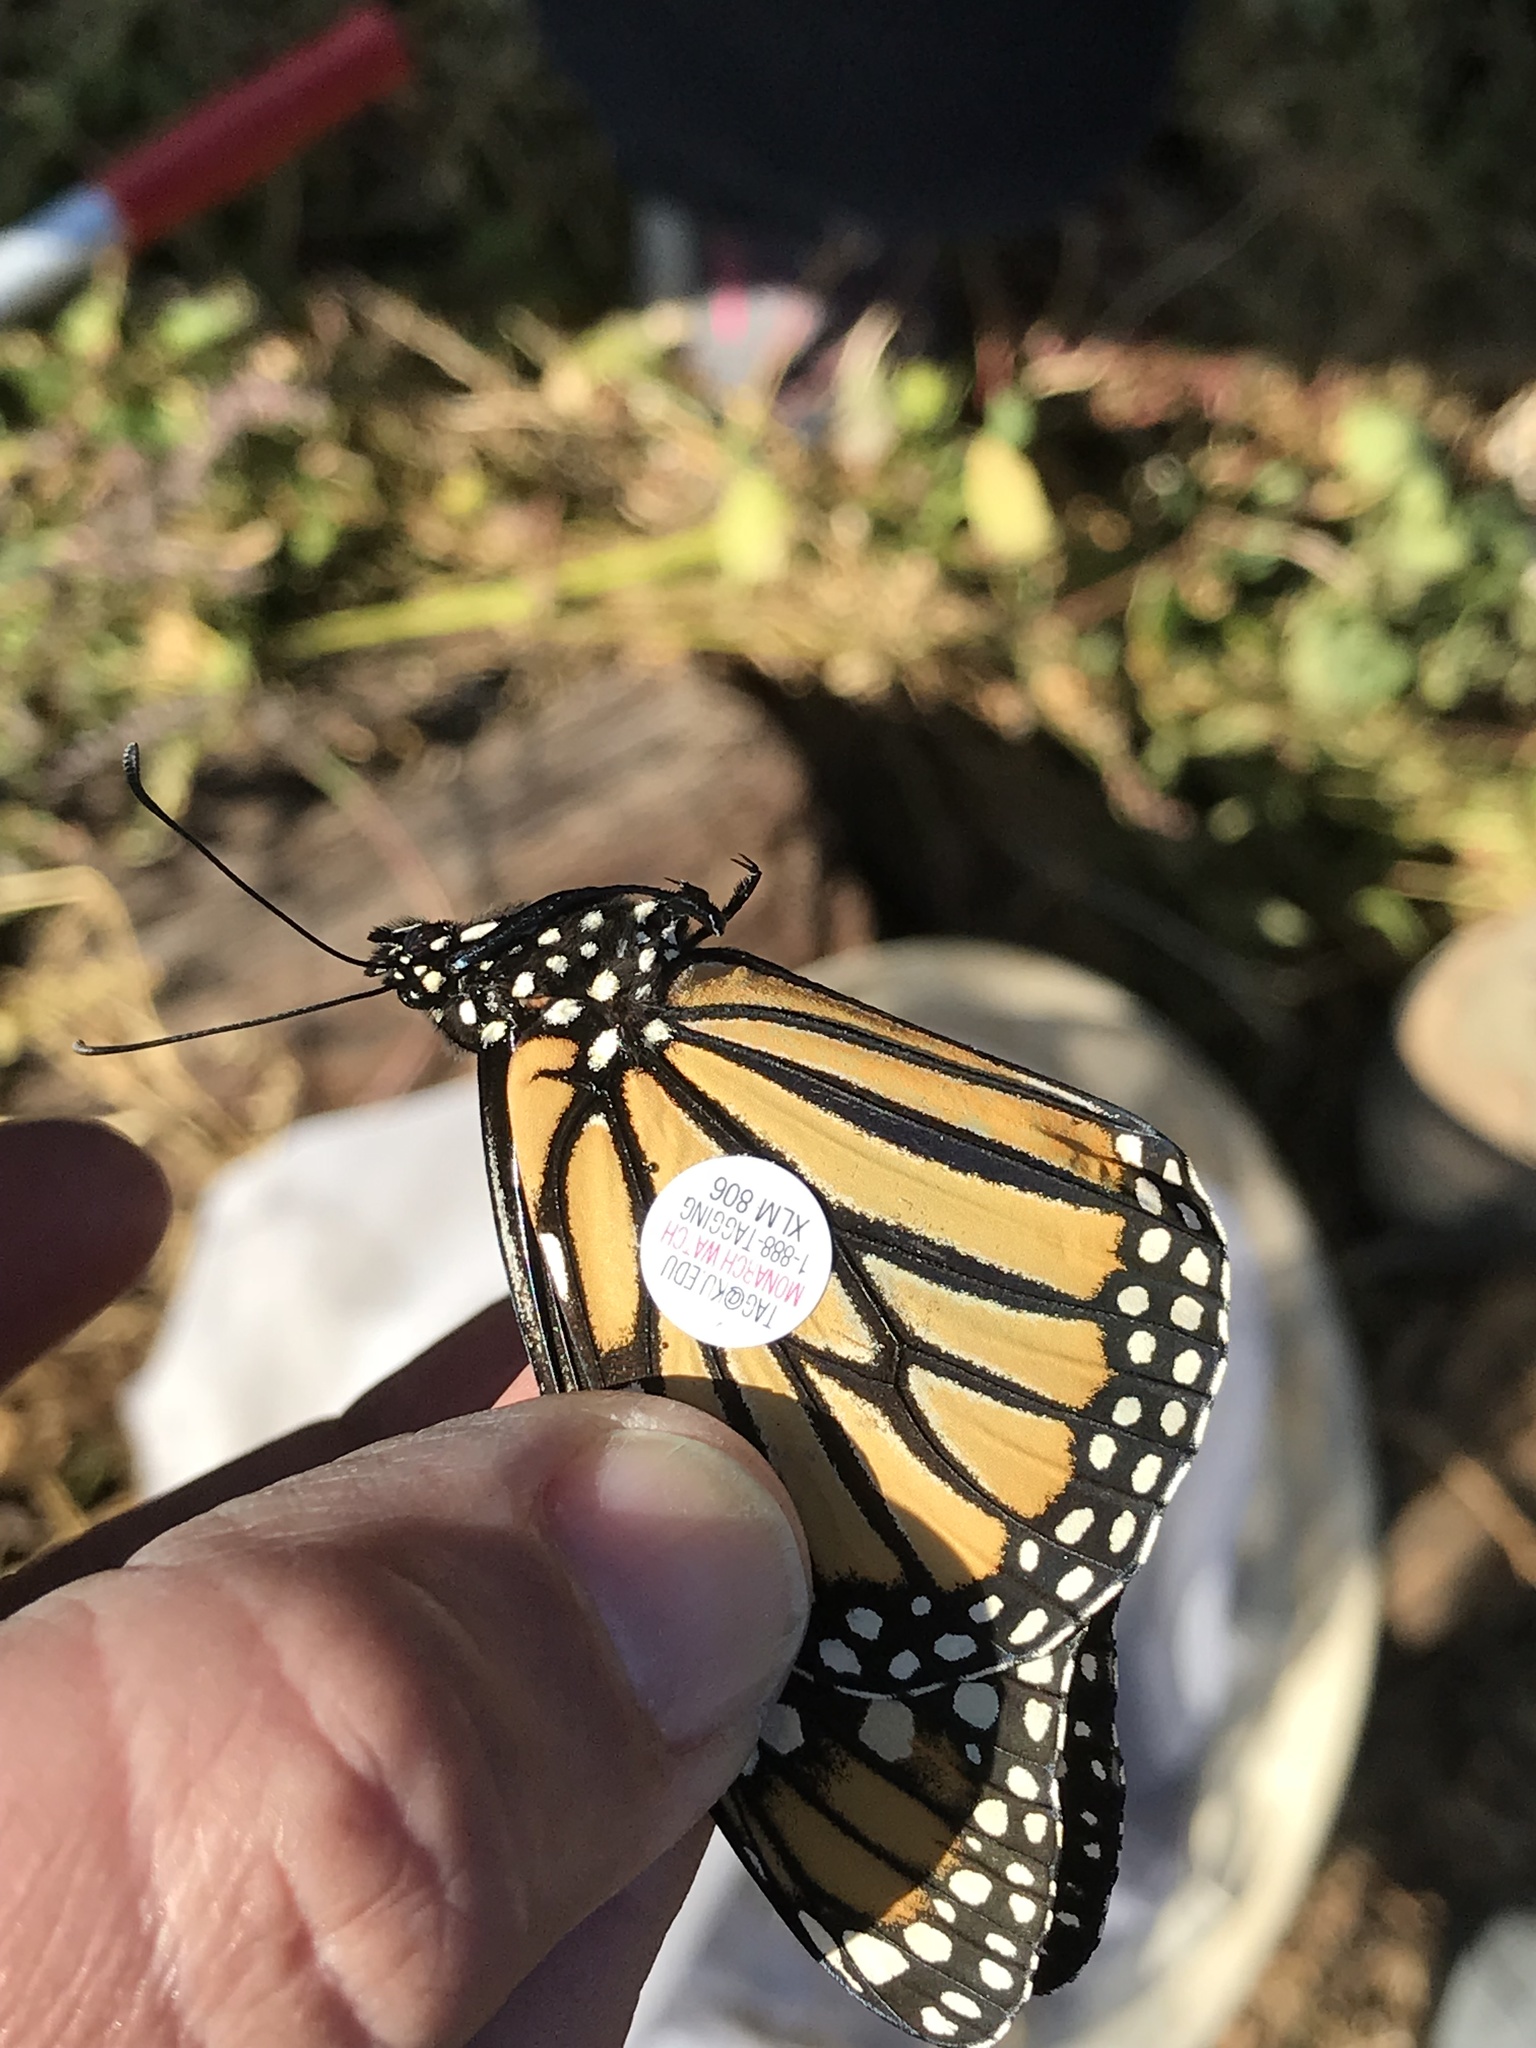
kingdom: Animalia
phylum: Arthropoda
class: Insecta
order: Lepidoptera
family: Nymphalidae
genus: Danaus
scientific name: Danaus plexippus
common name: Monarch
